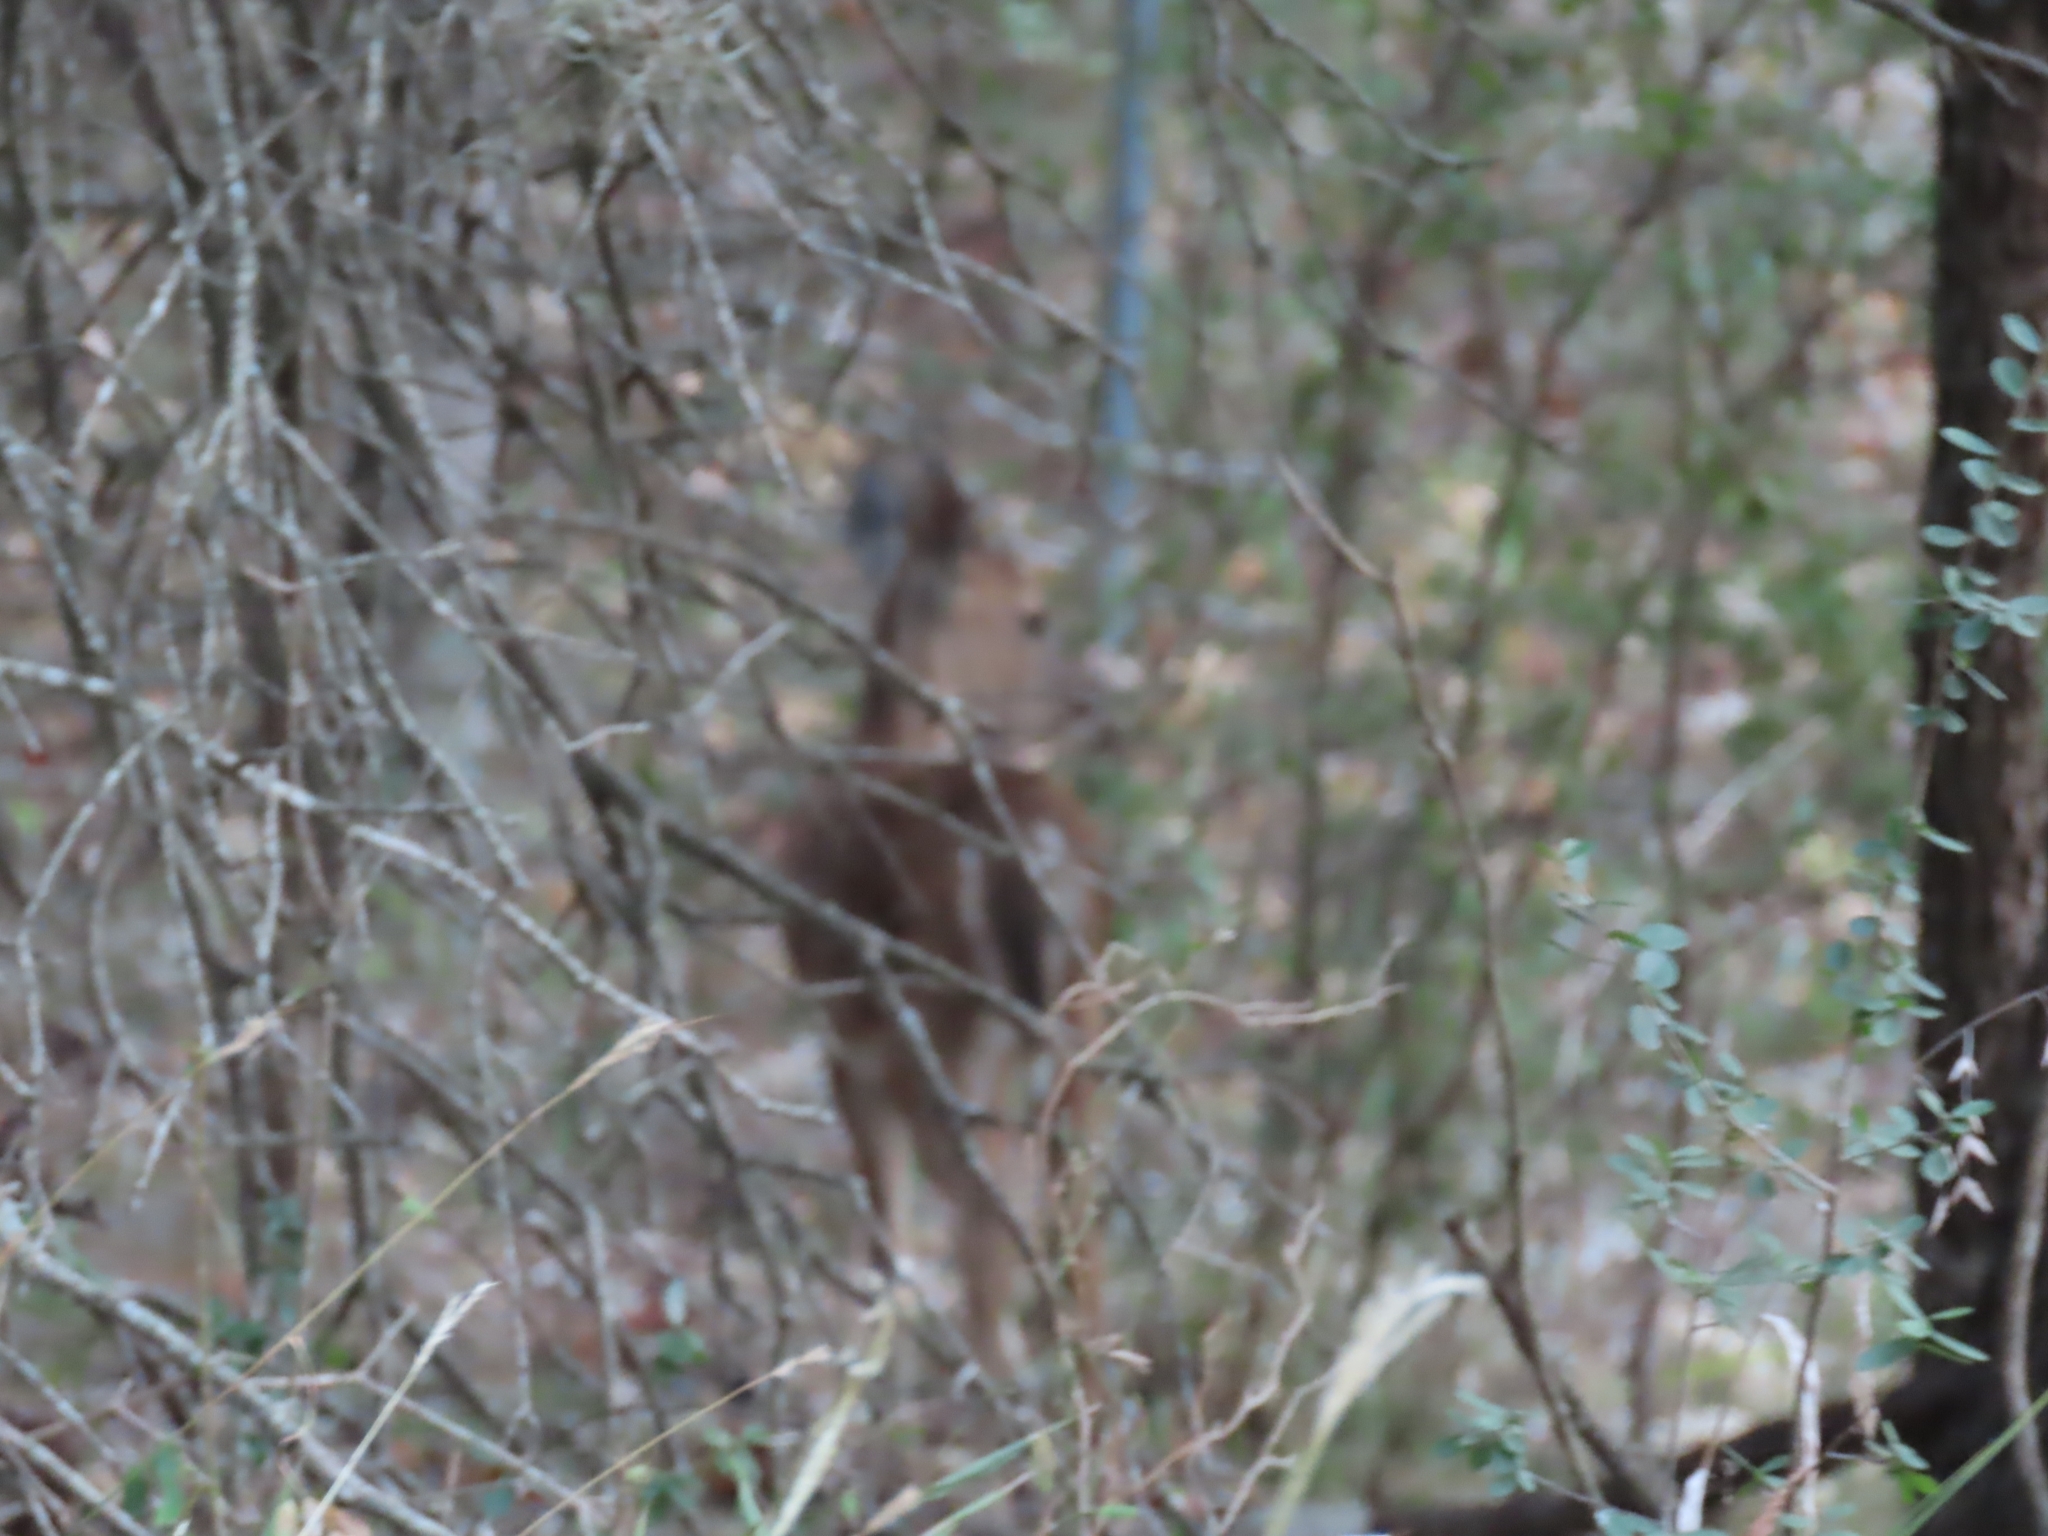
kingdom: Animalia
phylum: Chordata
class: Mammalia
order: Artiodactyla
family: Cervidae
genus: Odocoileus
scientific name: Odocoileus virginianus
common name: White-tailed deer
